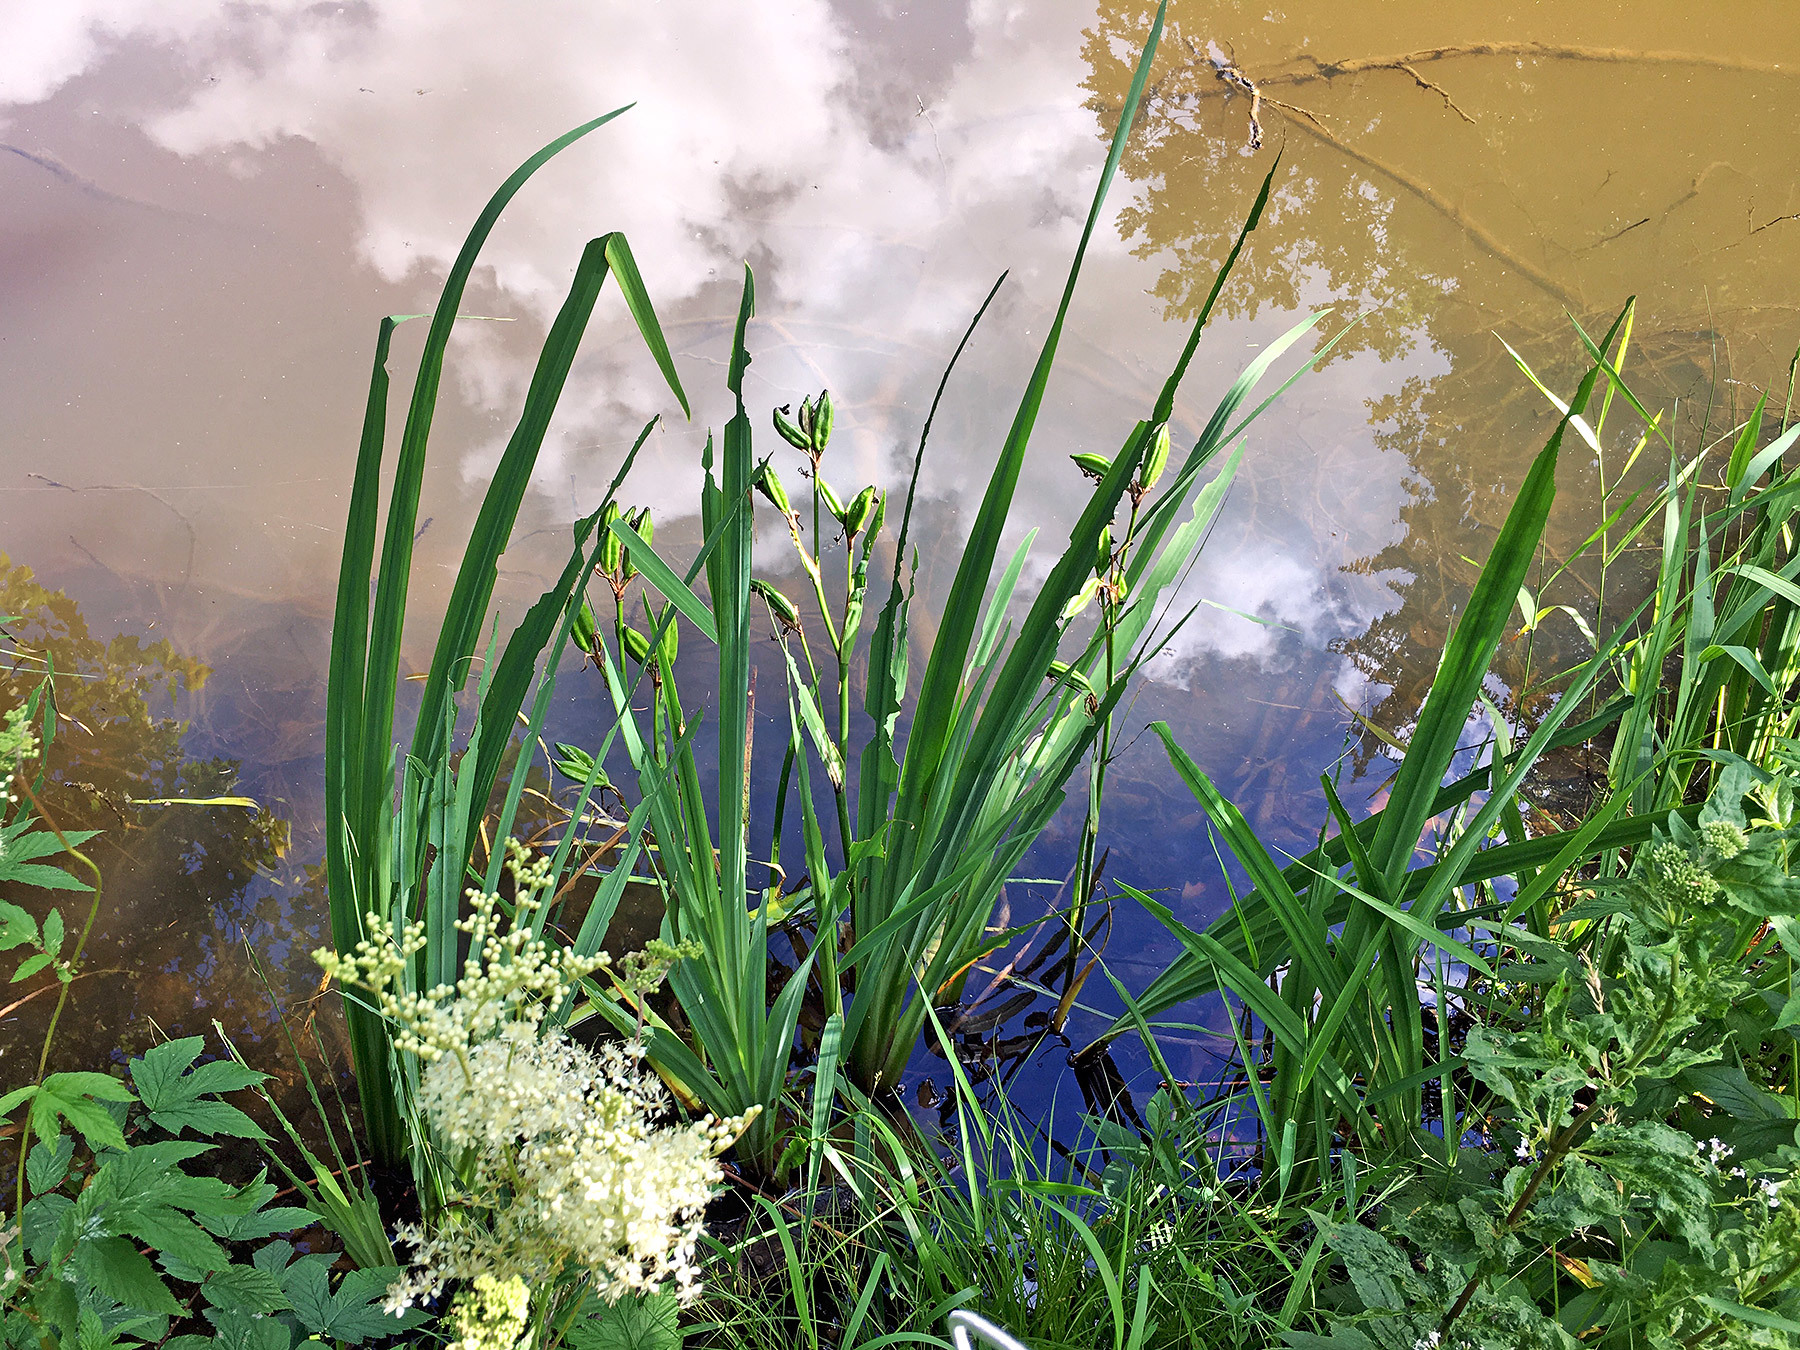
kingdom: Plantae
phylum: Tracheophyta
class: Liliopsida
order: Asparagales
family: Iridaceae
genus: Iris
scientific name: Iris pseudacorus
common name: Yellow flag
